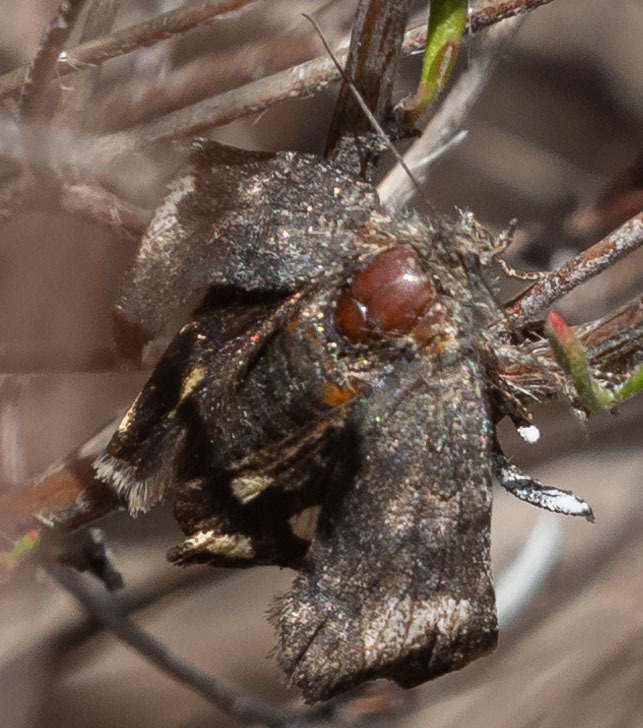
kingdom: Animalia
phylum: Arthropoda
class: Insecta
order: Lepidoptera
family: Erebidae
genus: Litocala
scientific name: Litocala sexsignata
